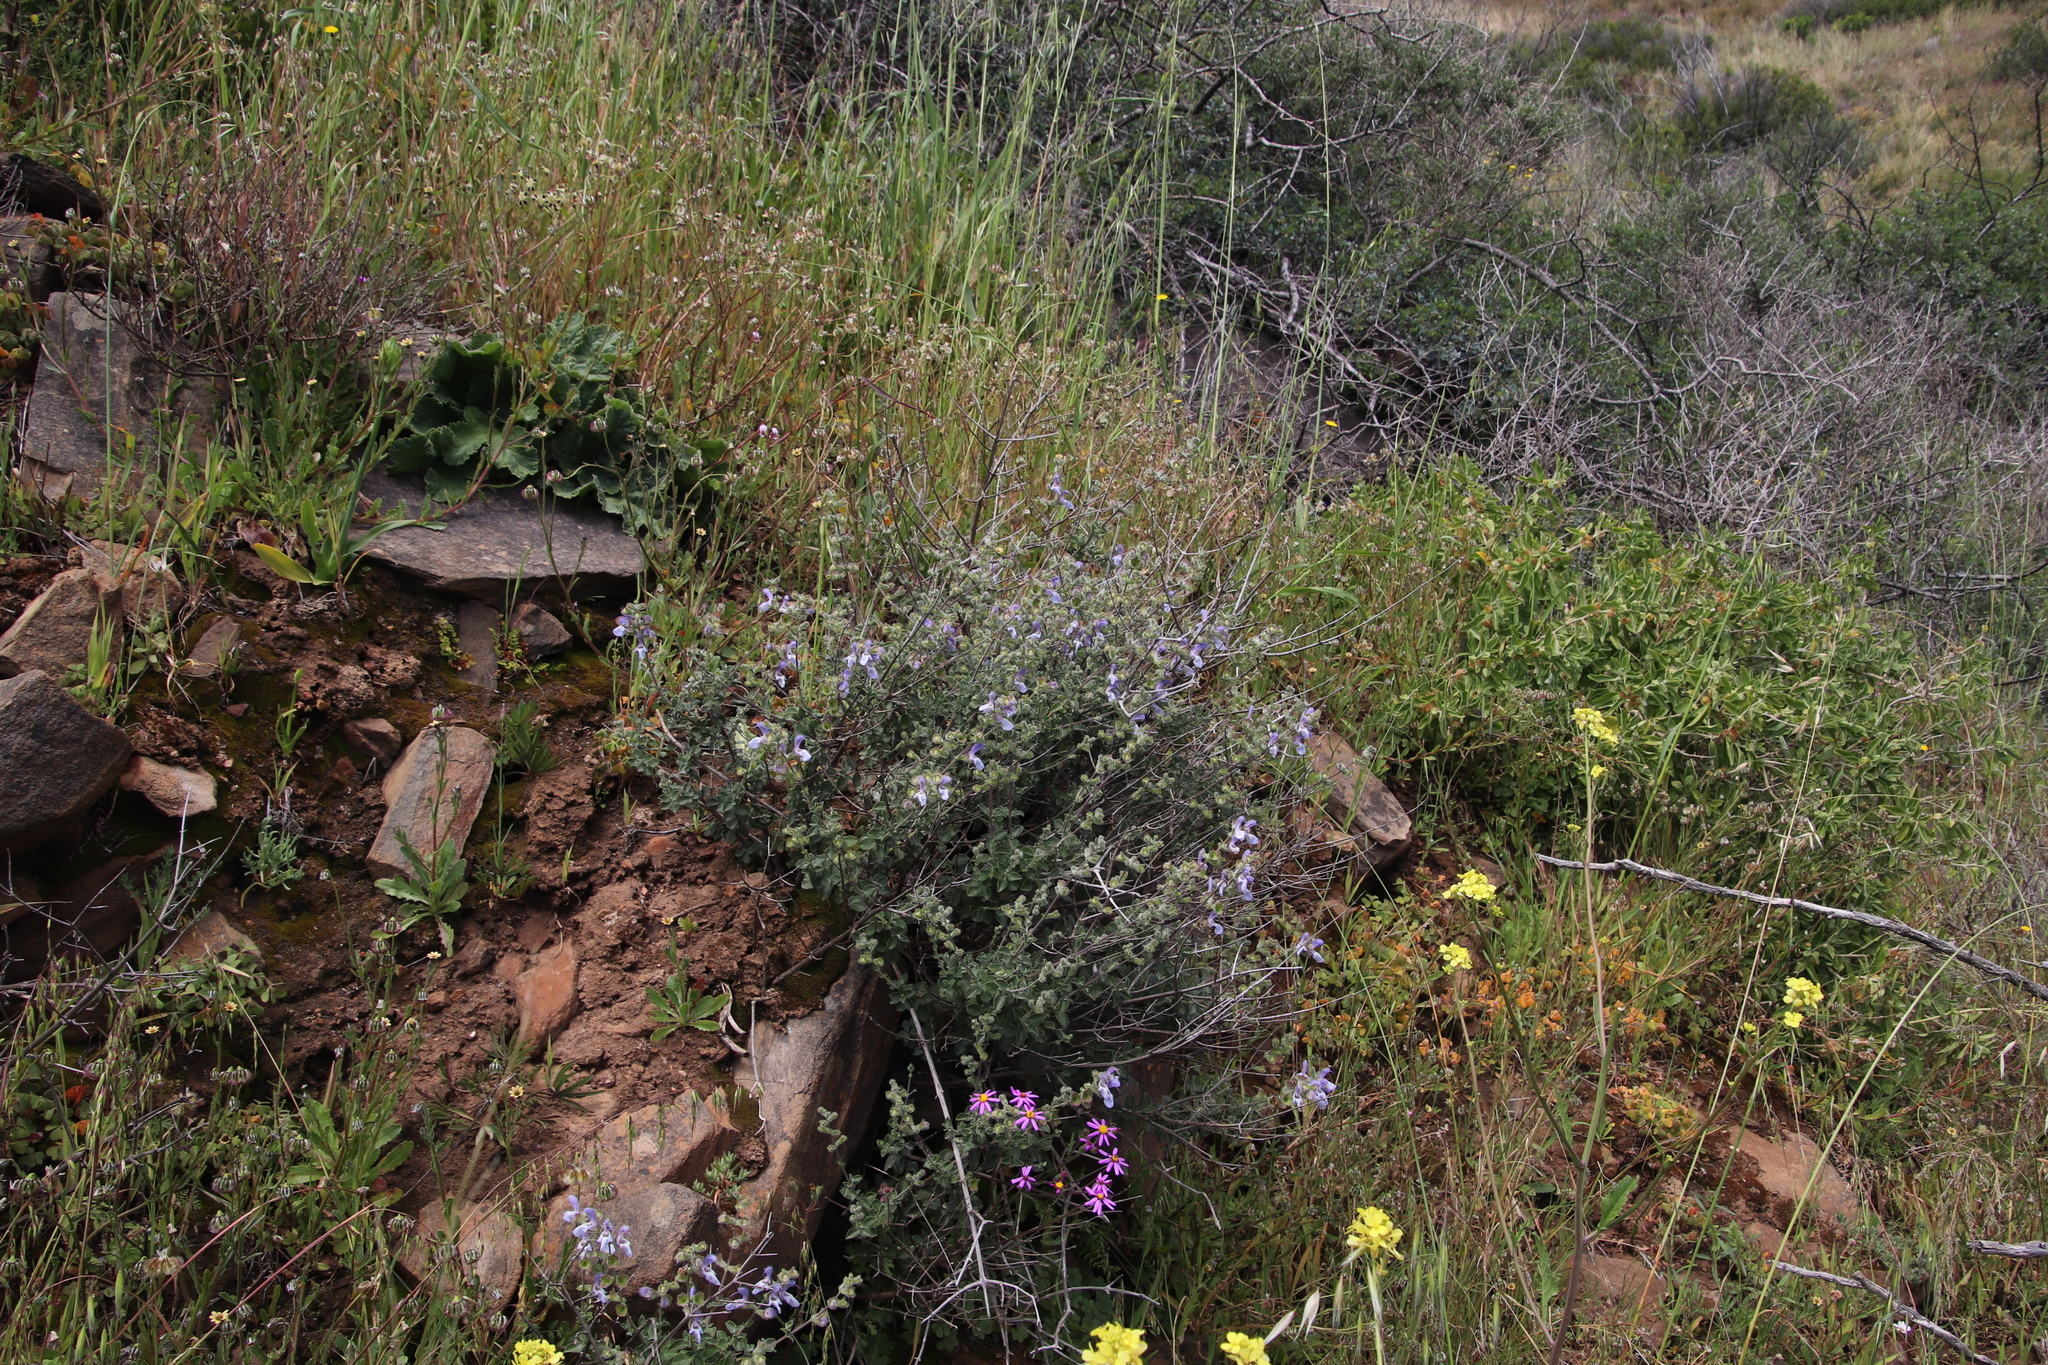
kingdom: Plantae
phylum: Tracheophyta
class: Magnoliopsida
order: Lamiales
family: Lamiaceae
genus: Salvia
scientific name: Salvia africana
